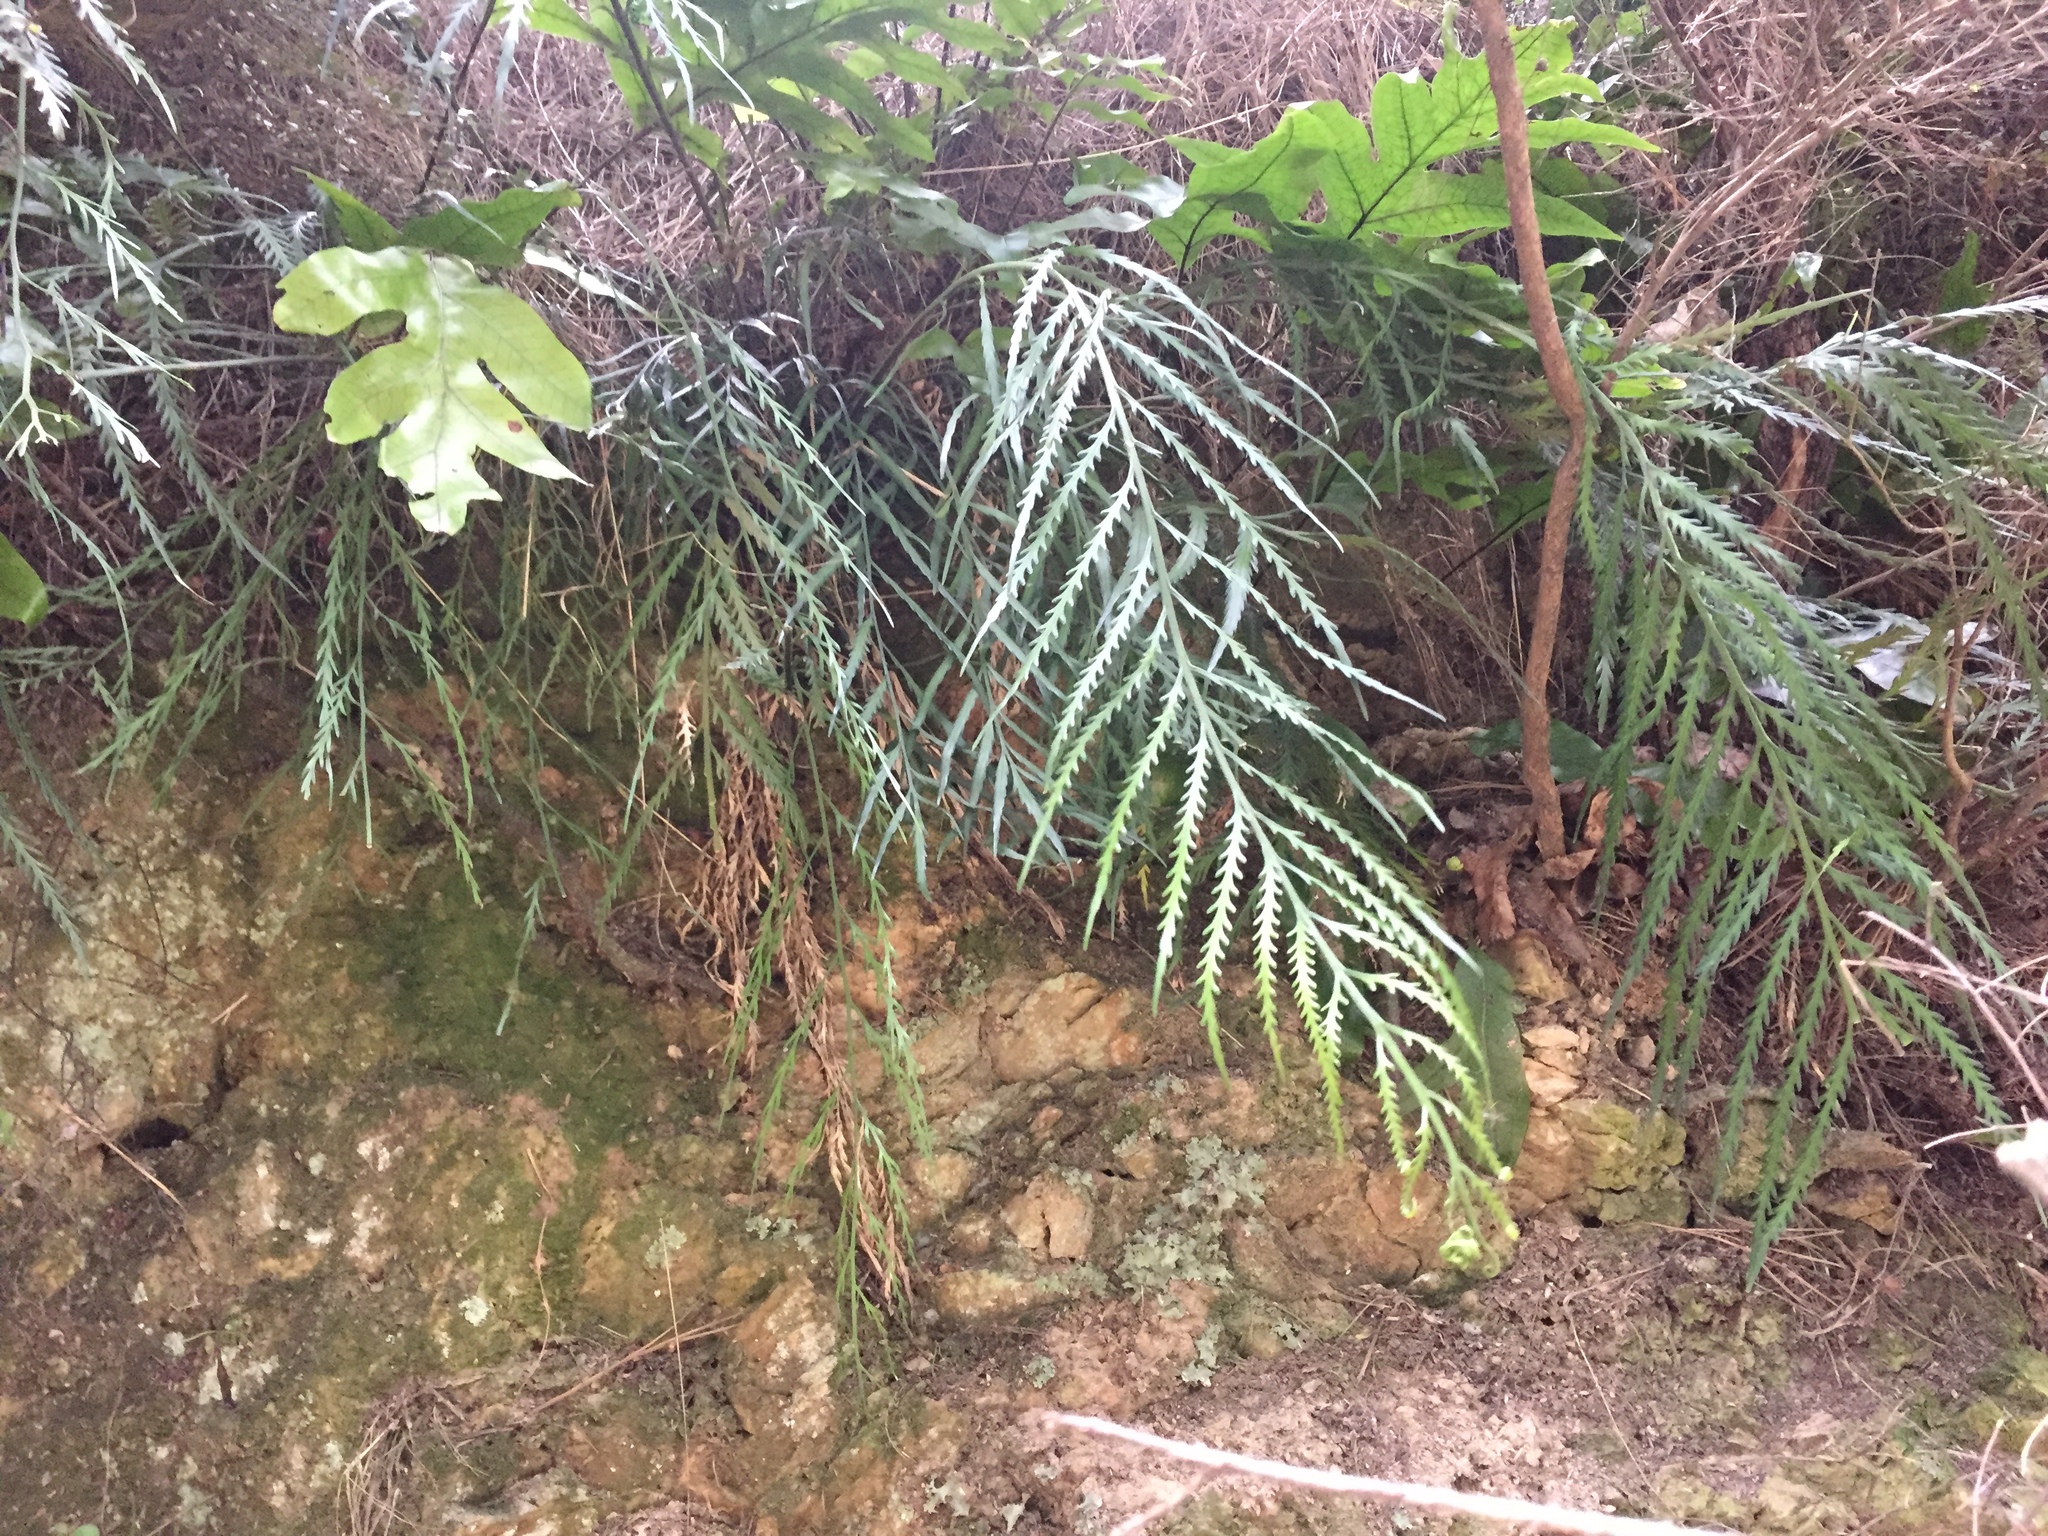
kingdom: Plantae
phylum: Tracheophyta
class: Polypodiopsida
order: Polypodiales
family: Aspleniaceae
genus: Asplenium
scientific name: Asplenium flaccidum
